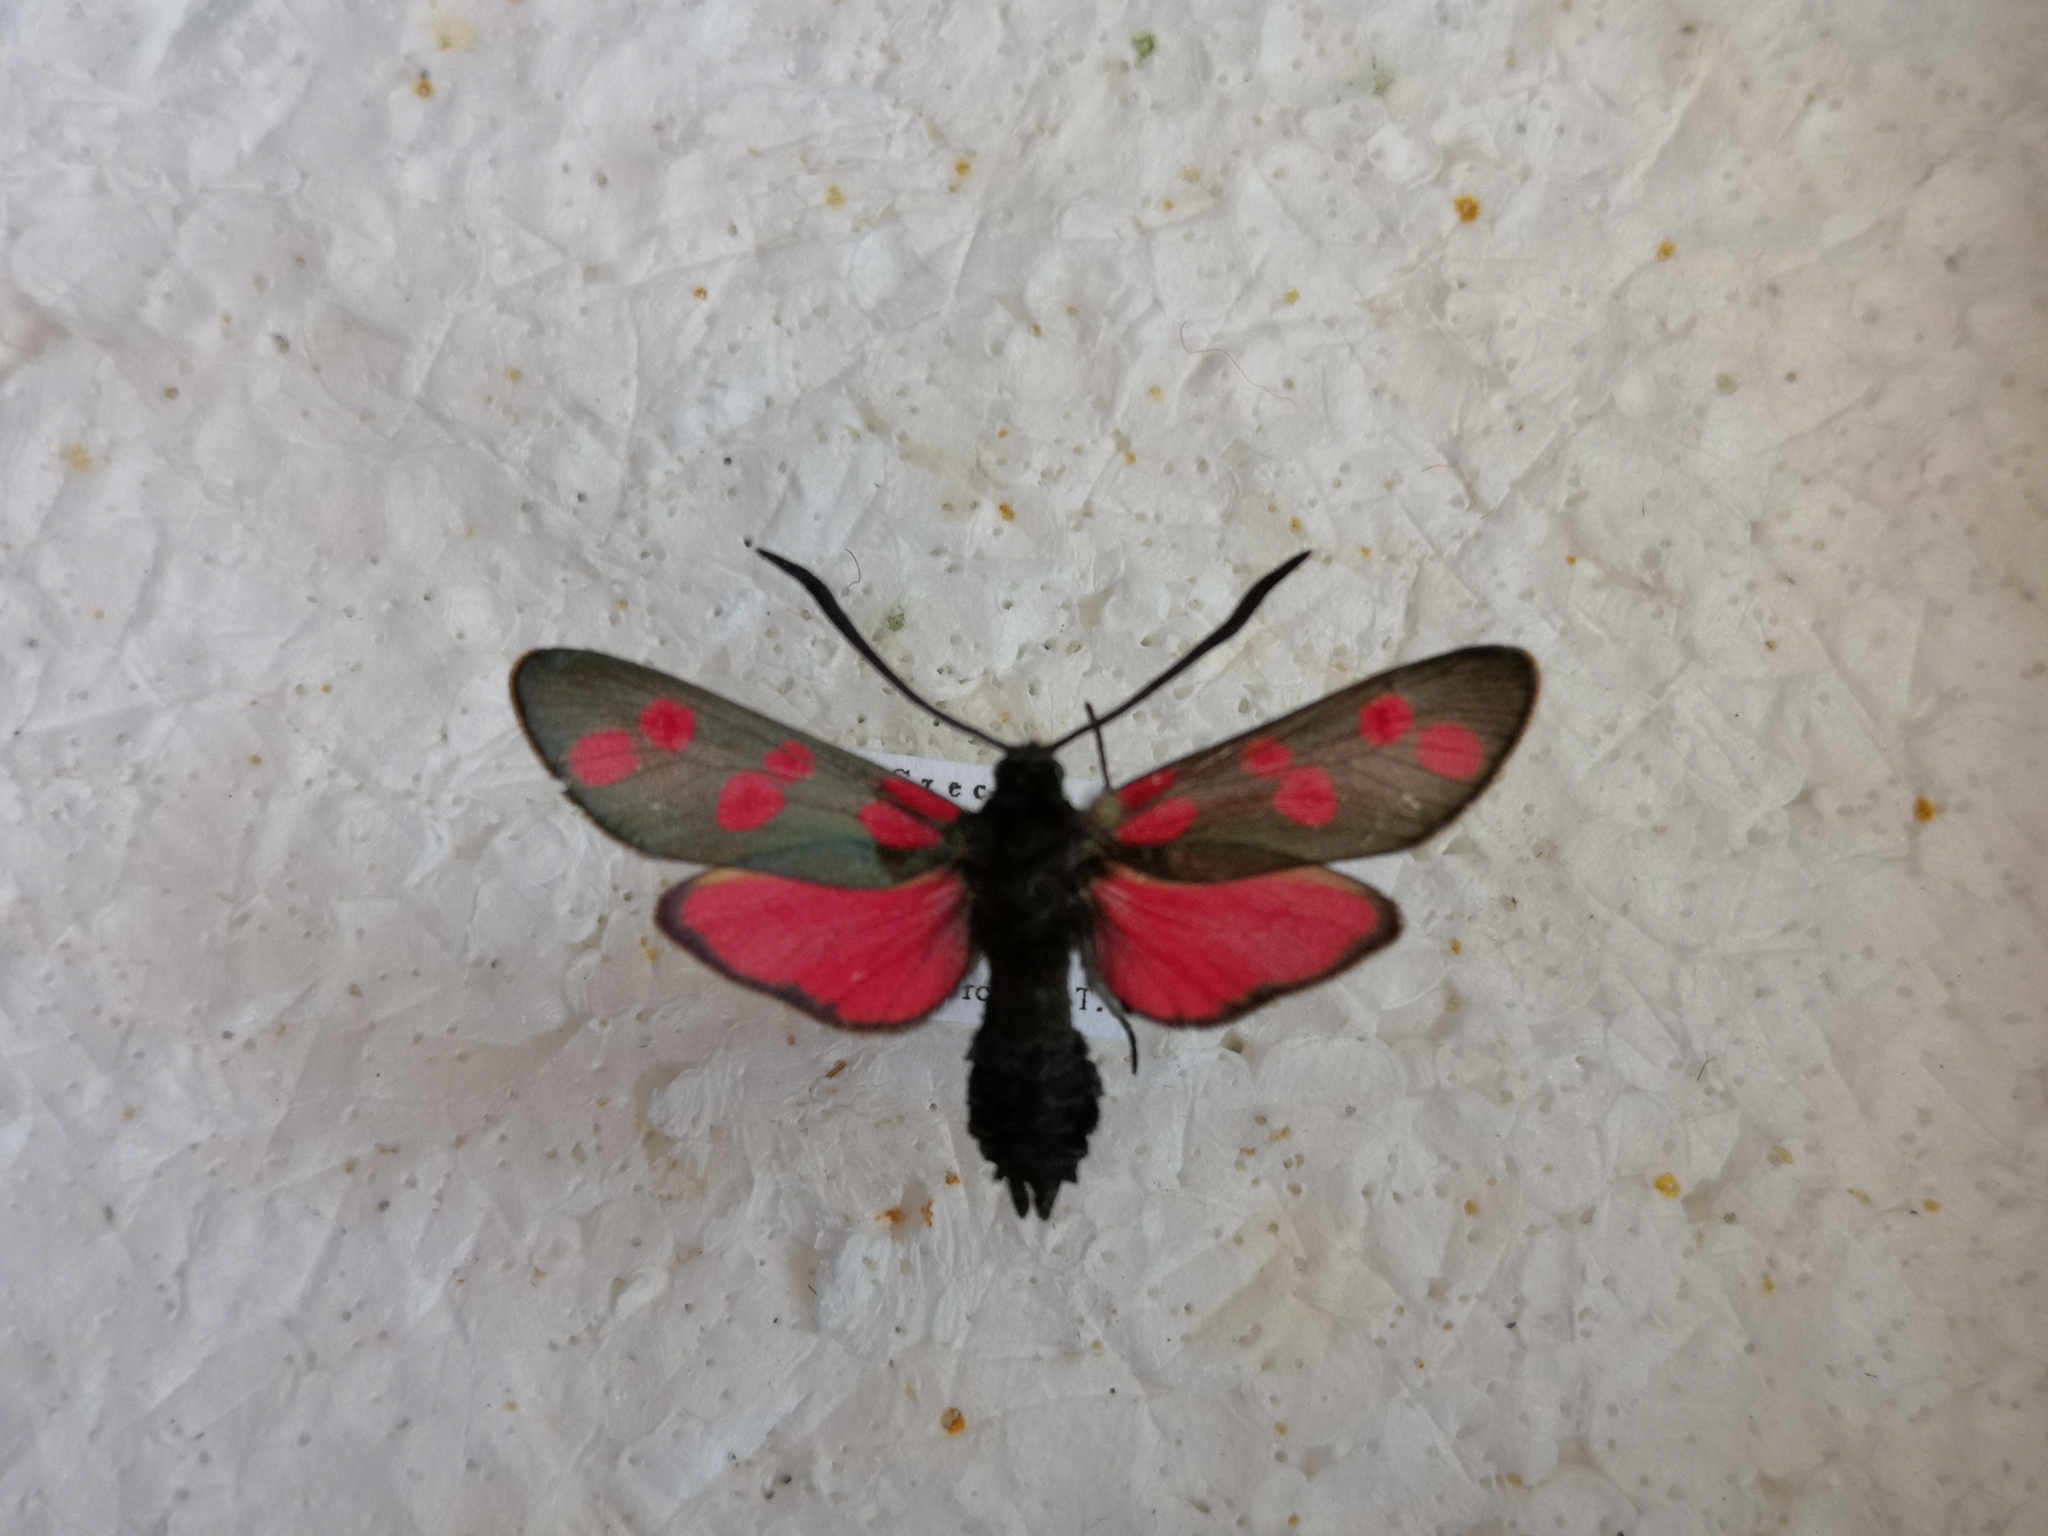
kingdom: Animalia
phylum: Arthropoda
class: Insecta
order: Lepidoptera
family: Zygaenidae
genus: Zygaena
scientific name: Zygaena filipendulae
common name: Six-spot burnet
